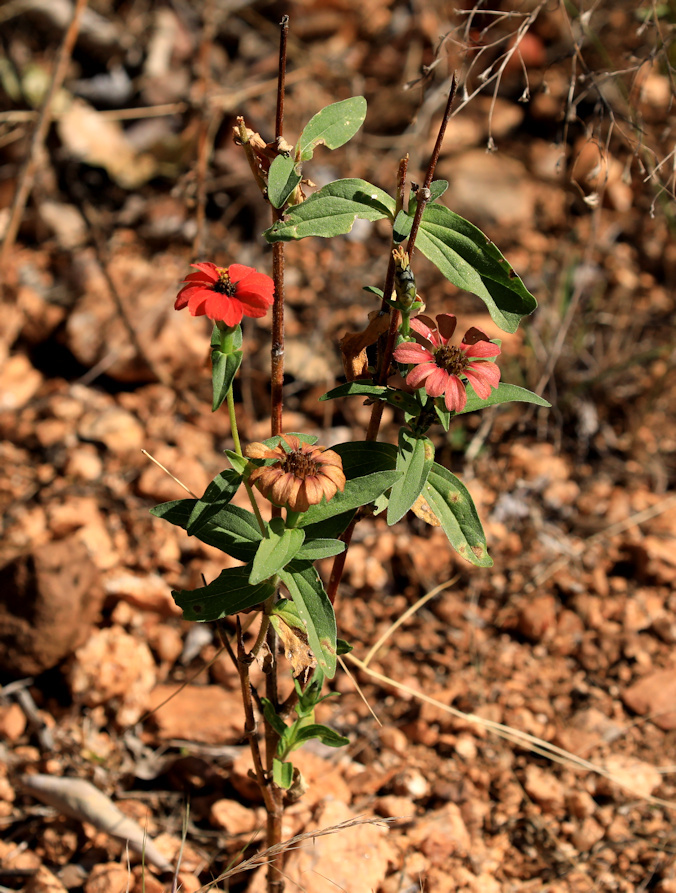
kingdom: Plantae
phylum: Tracheophyta
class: Magnoliopsida
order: Asterales
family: Asteraceae
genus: Zinnia
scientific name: Zinnia peruviana
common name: Peruvian zinnia
